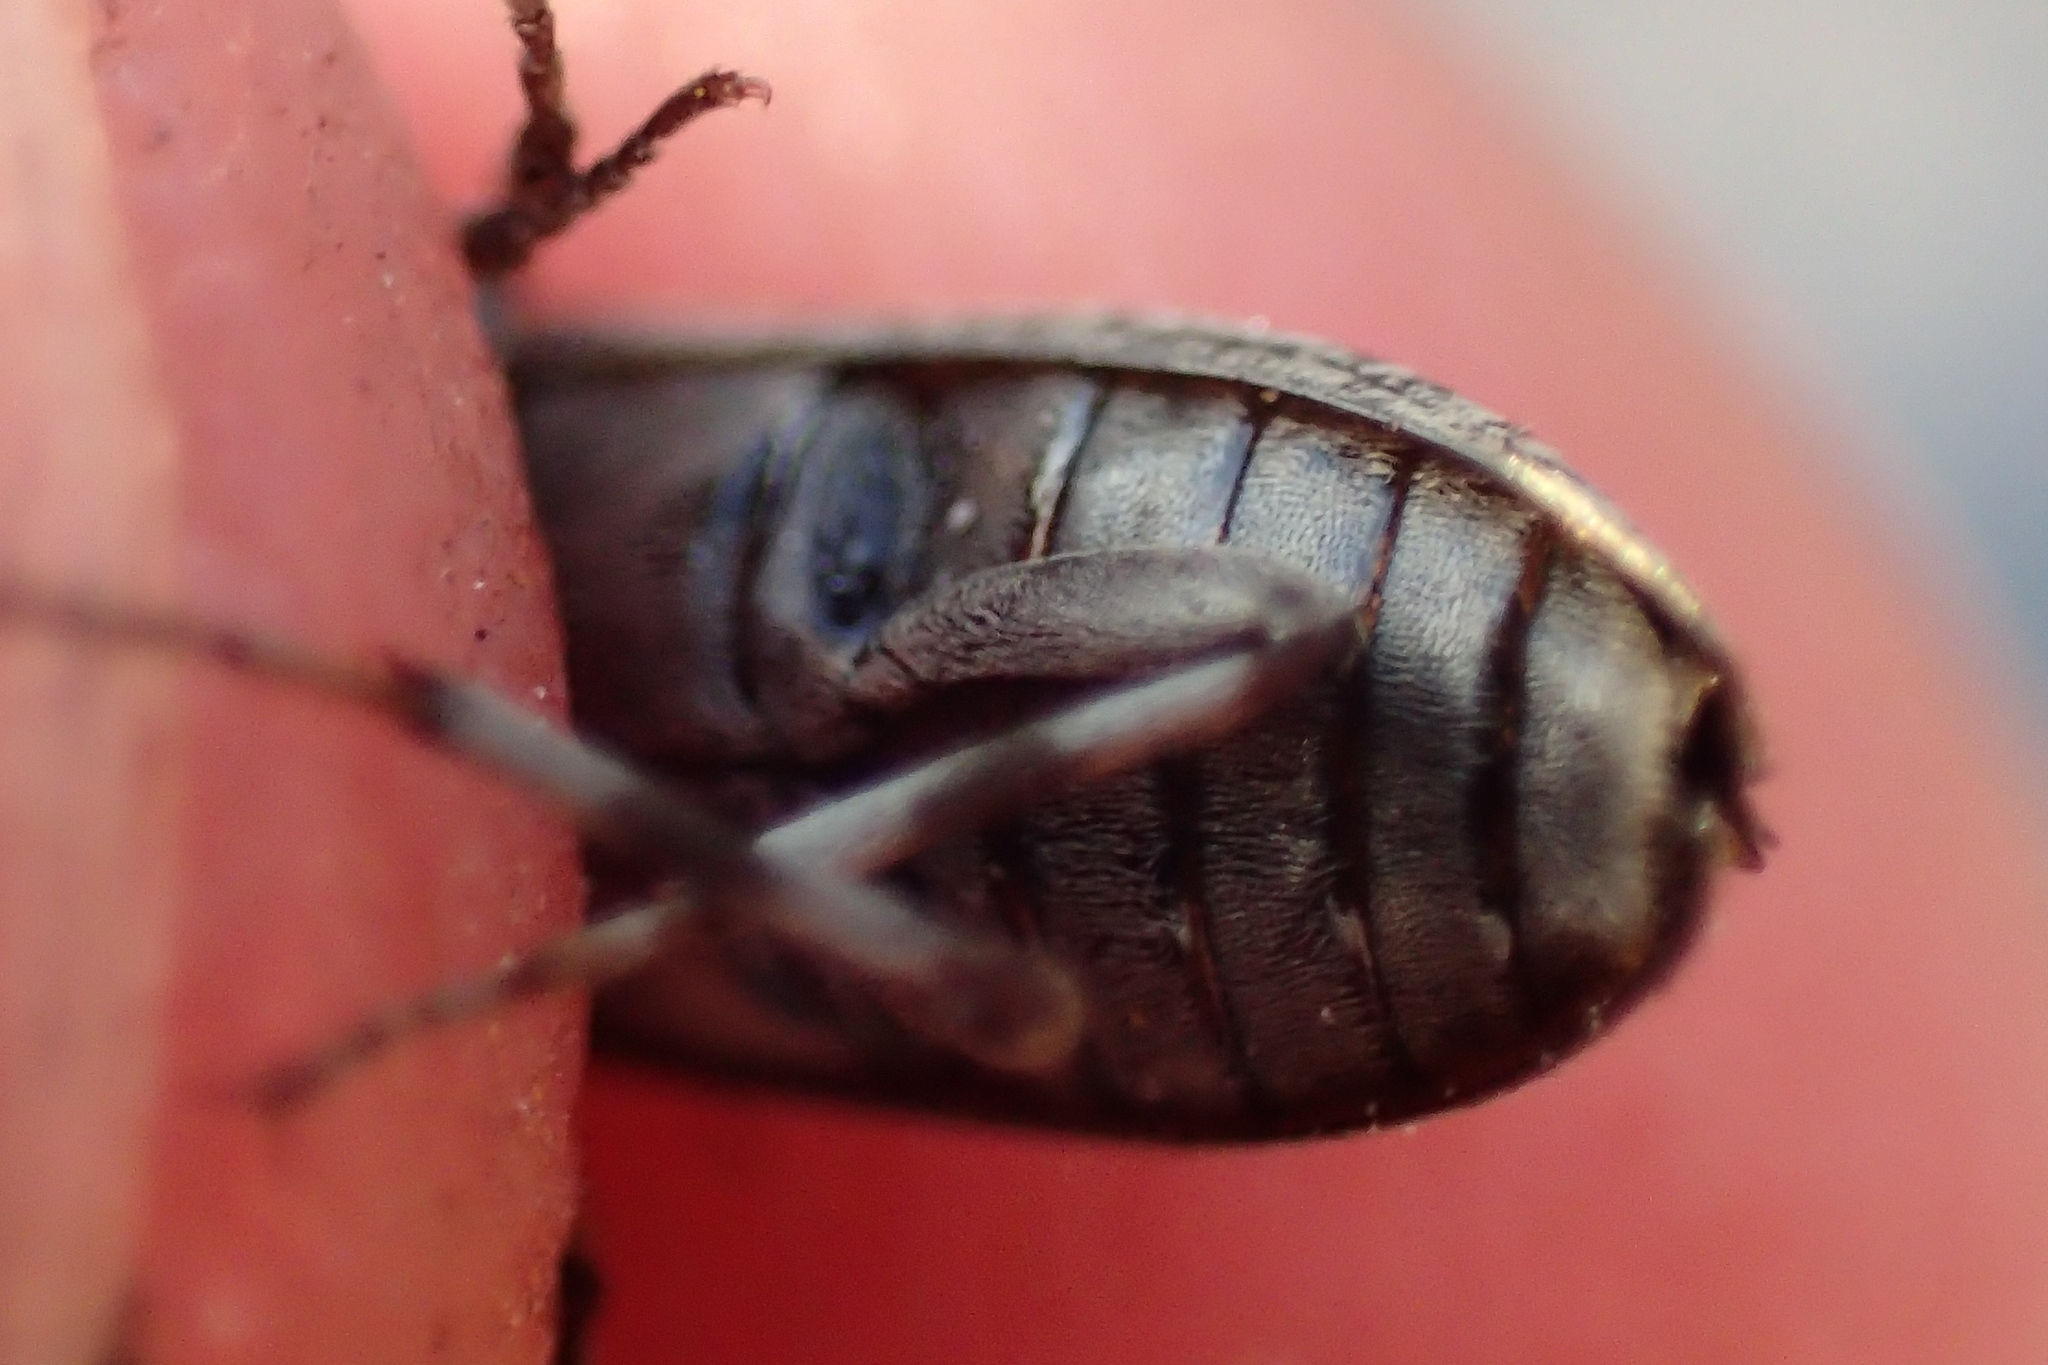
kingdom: Animalia
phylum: Arthropoda
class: Insecta
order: Coleoptera
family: Stenotrachelidae
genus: Scotodes
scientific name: Scotodes annulatus
